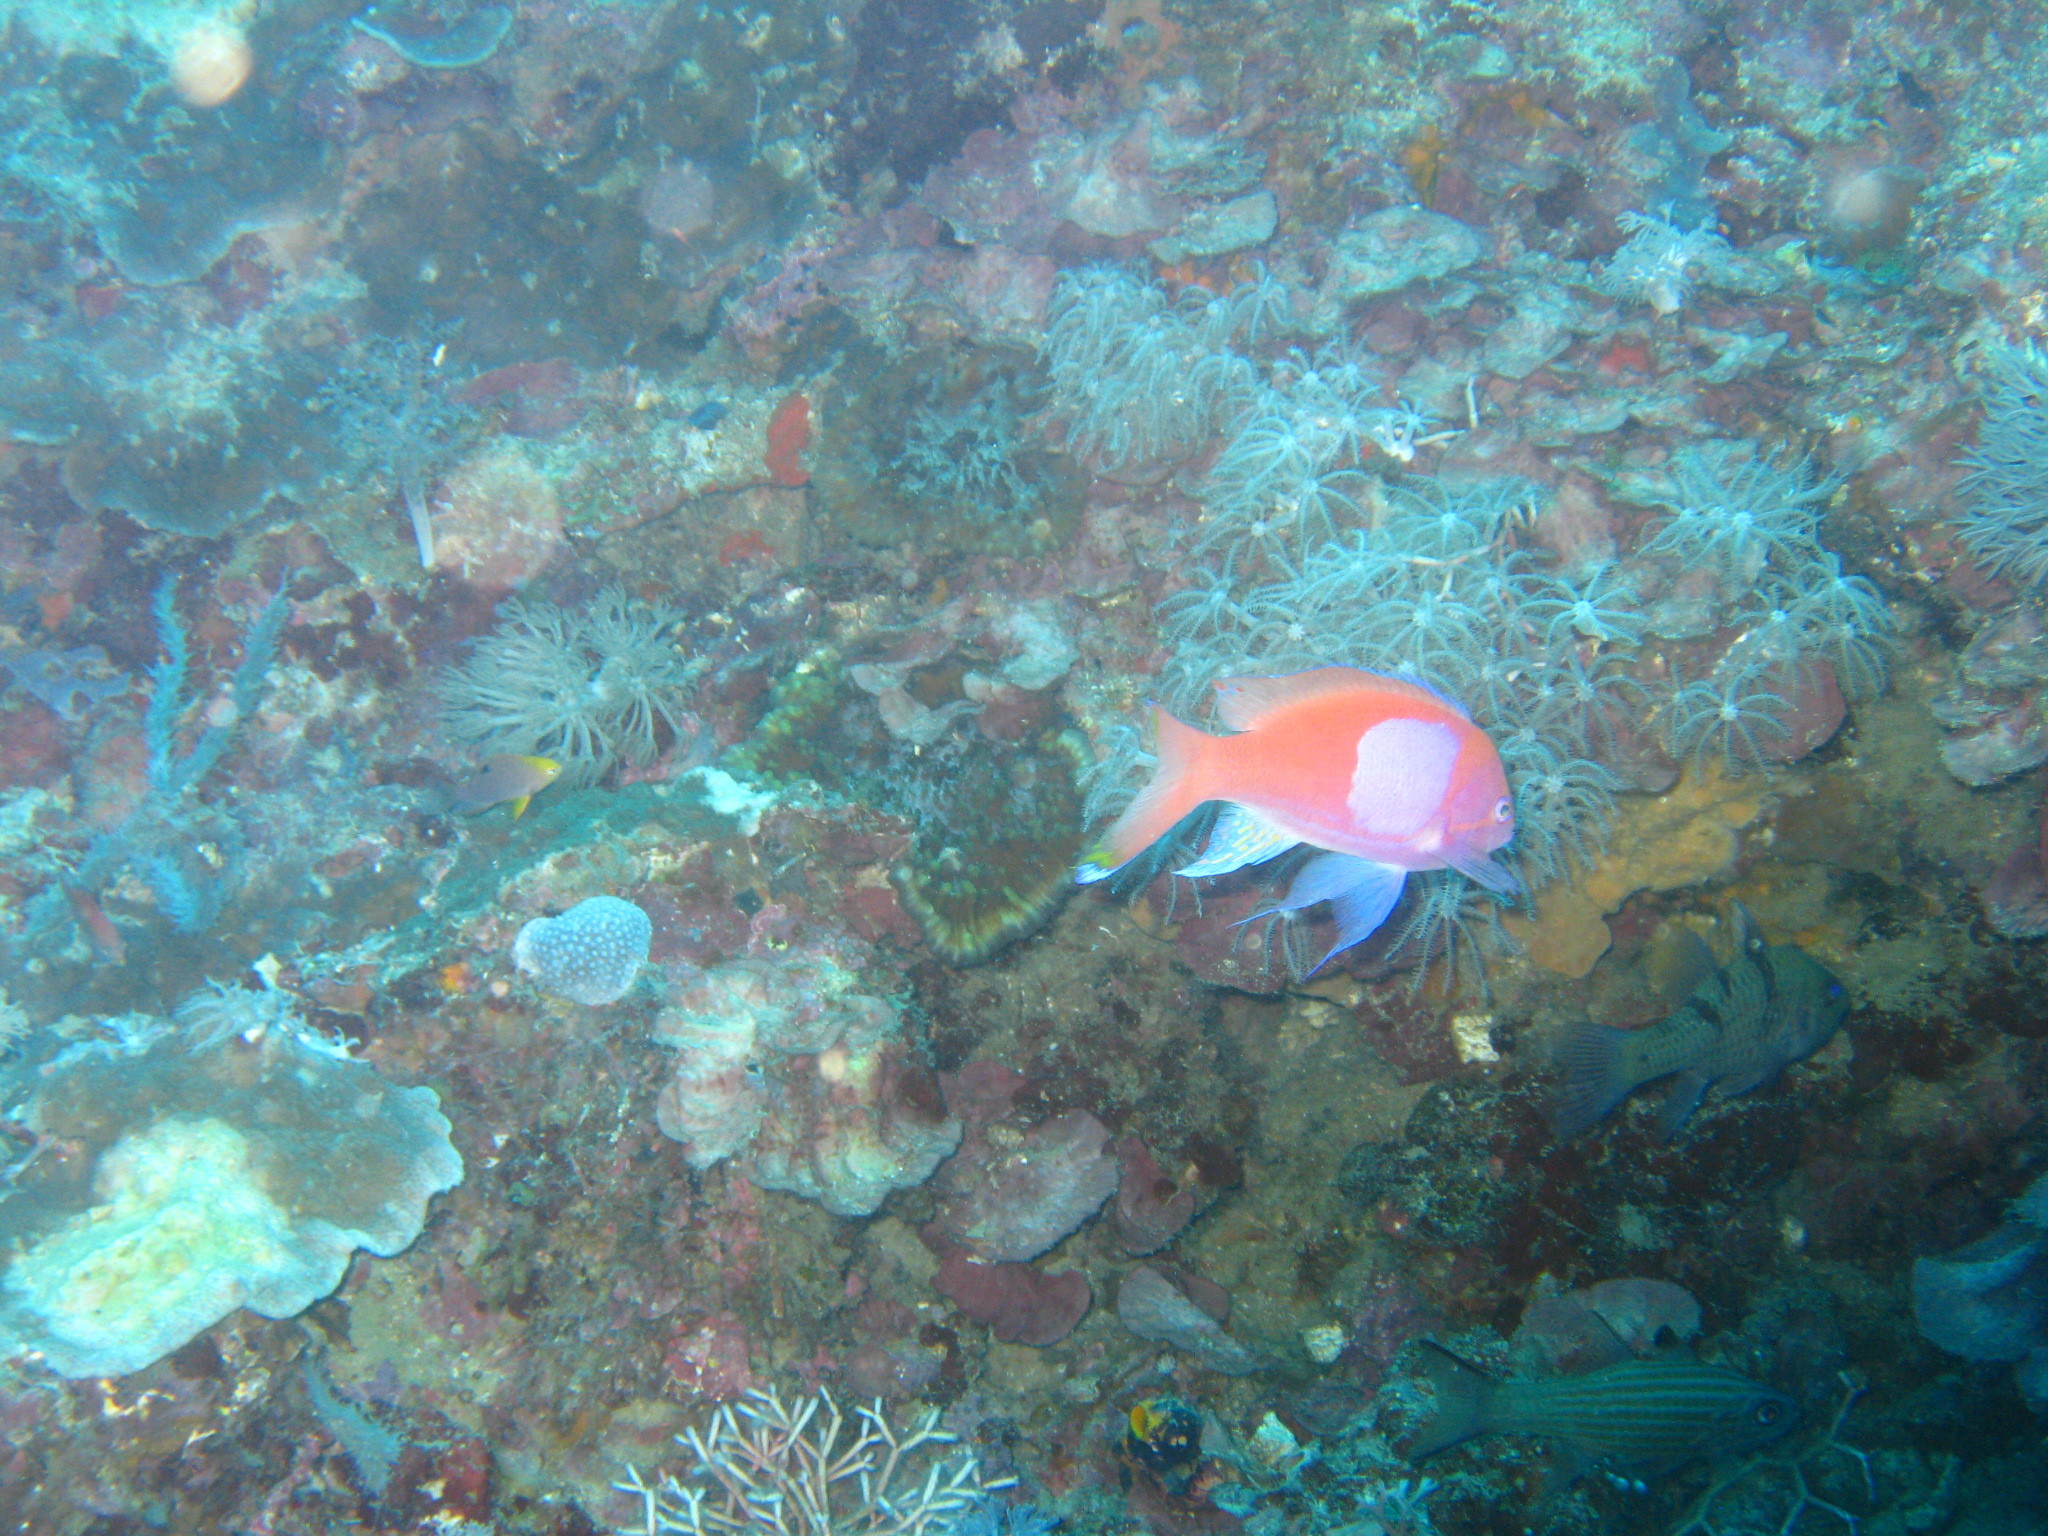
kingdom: Animalia
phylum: Chordata
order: Perciformes
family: Serranidae
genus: Pseudanthias
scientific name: Pseudanthias pleurotaenia
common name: Mirror basslet
